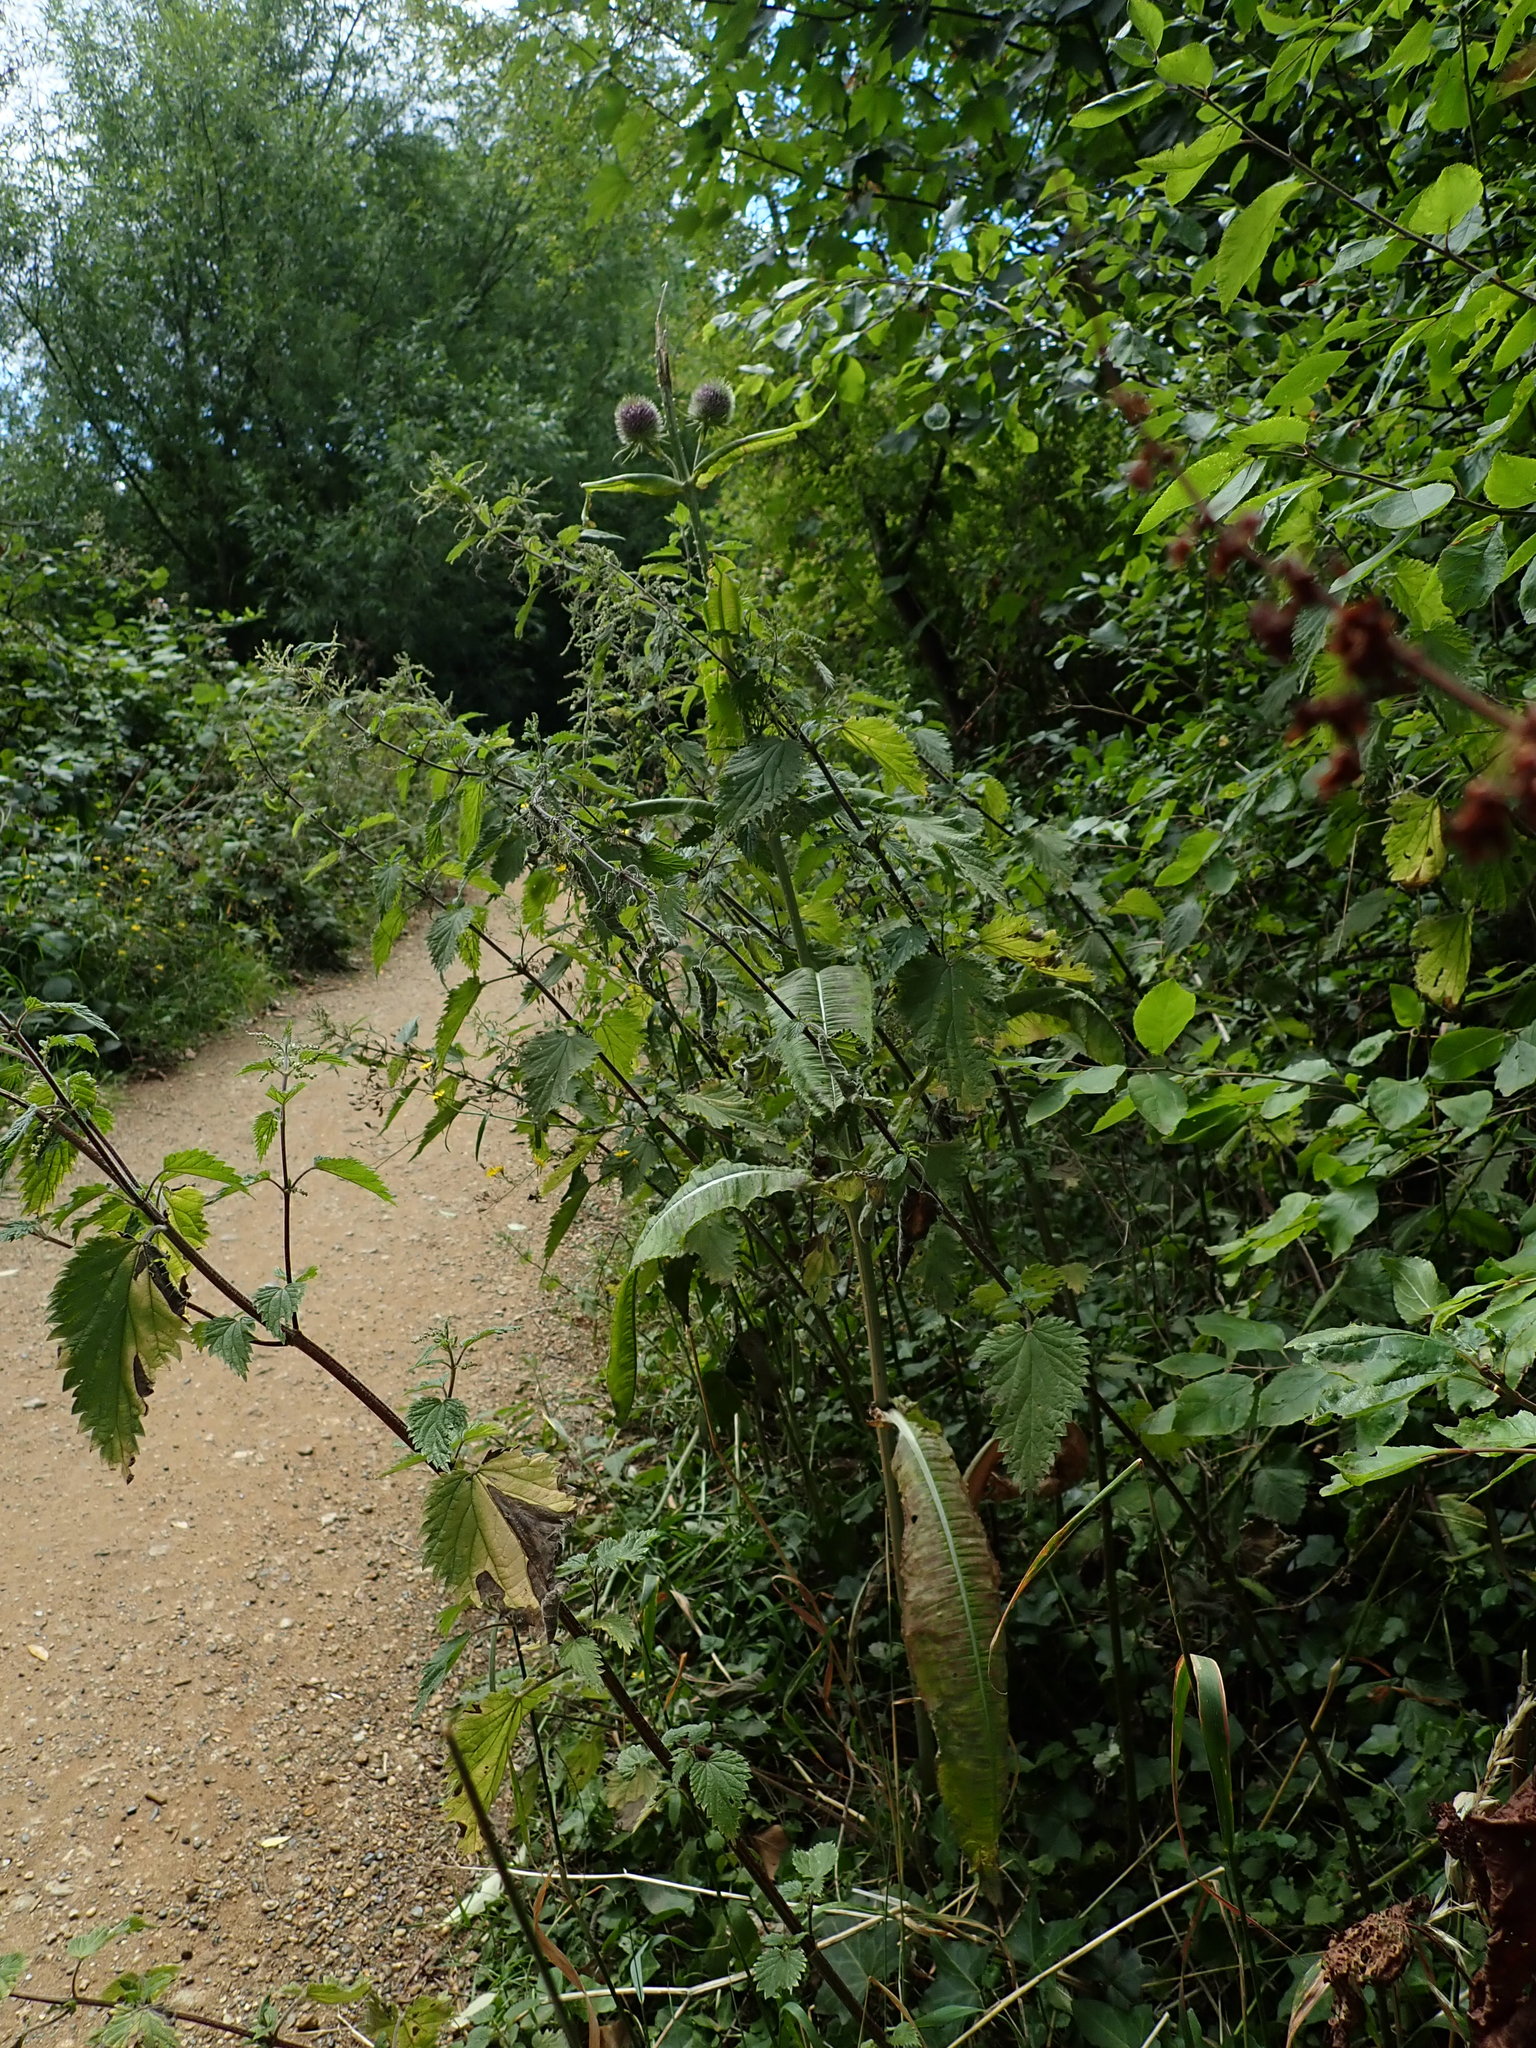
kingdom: Plantae
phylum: Tracheophyta
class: Magnoliopsida
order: Dipsacales
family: Caprifoliaceae
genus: Dipsacus
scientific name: Dipsacus fullonum
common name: Teasel
